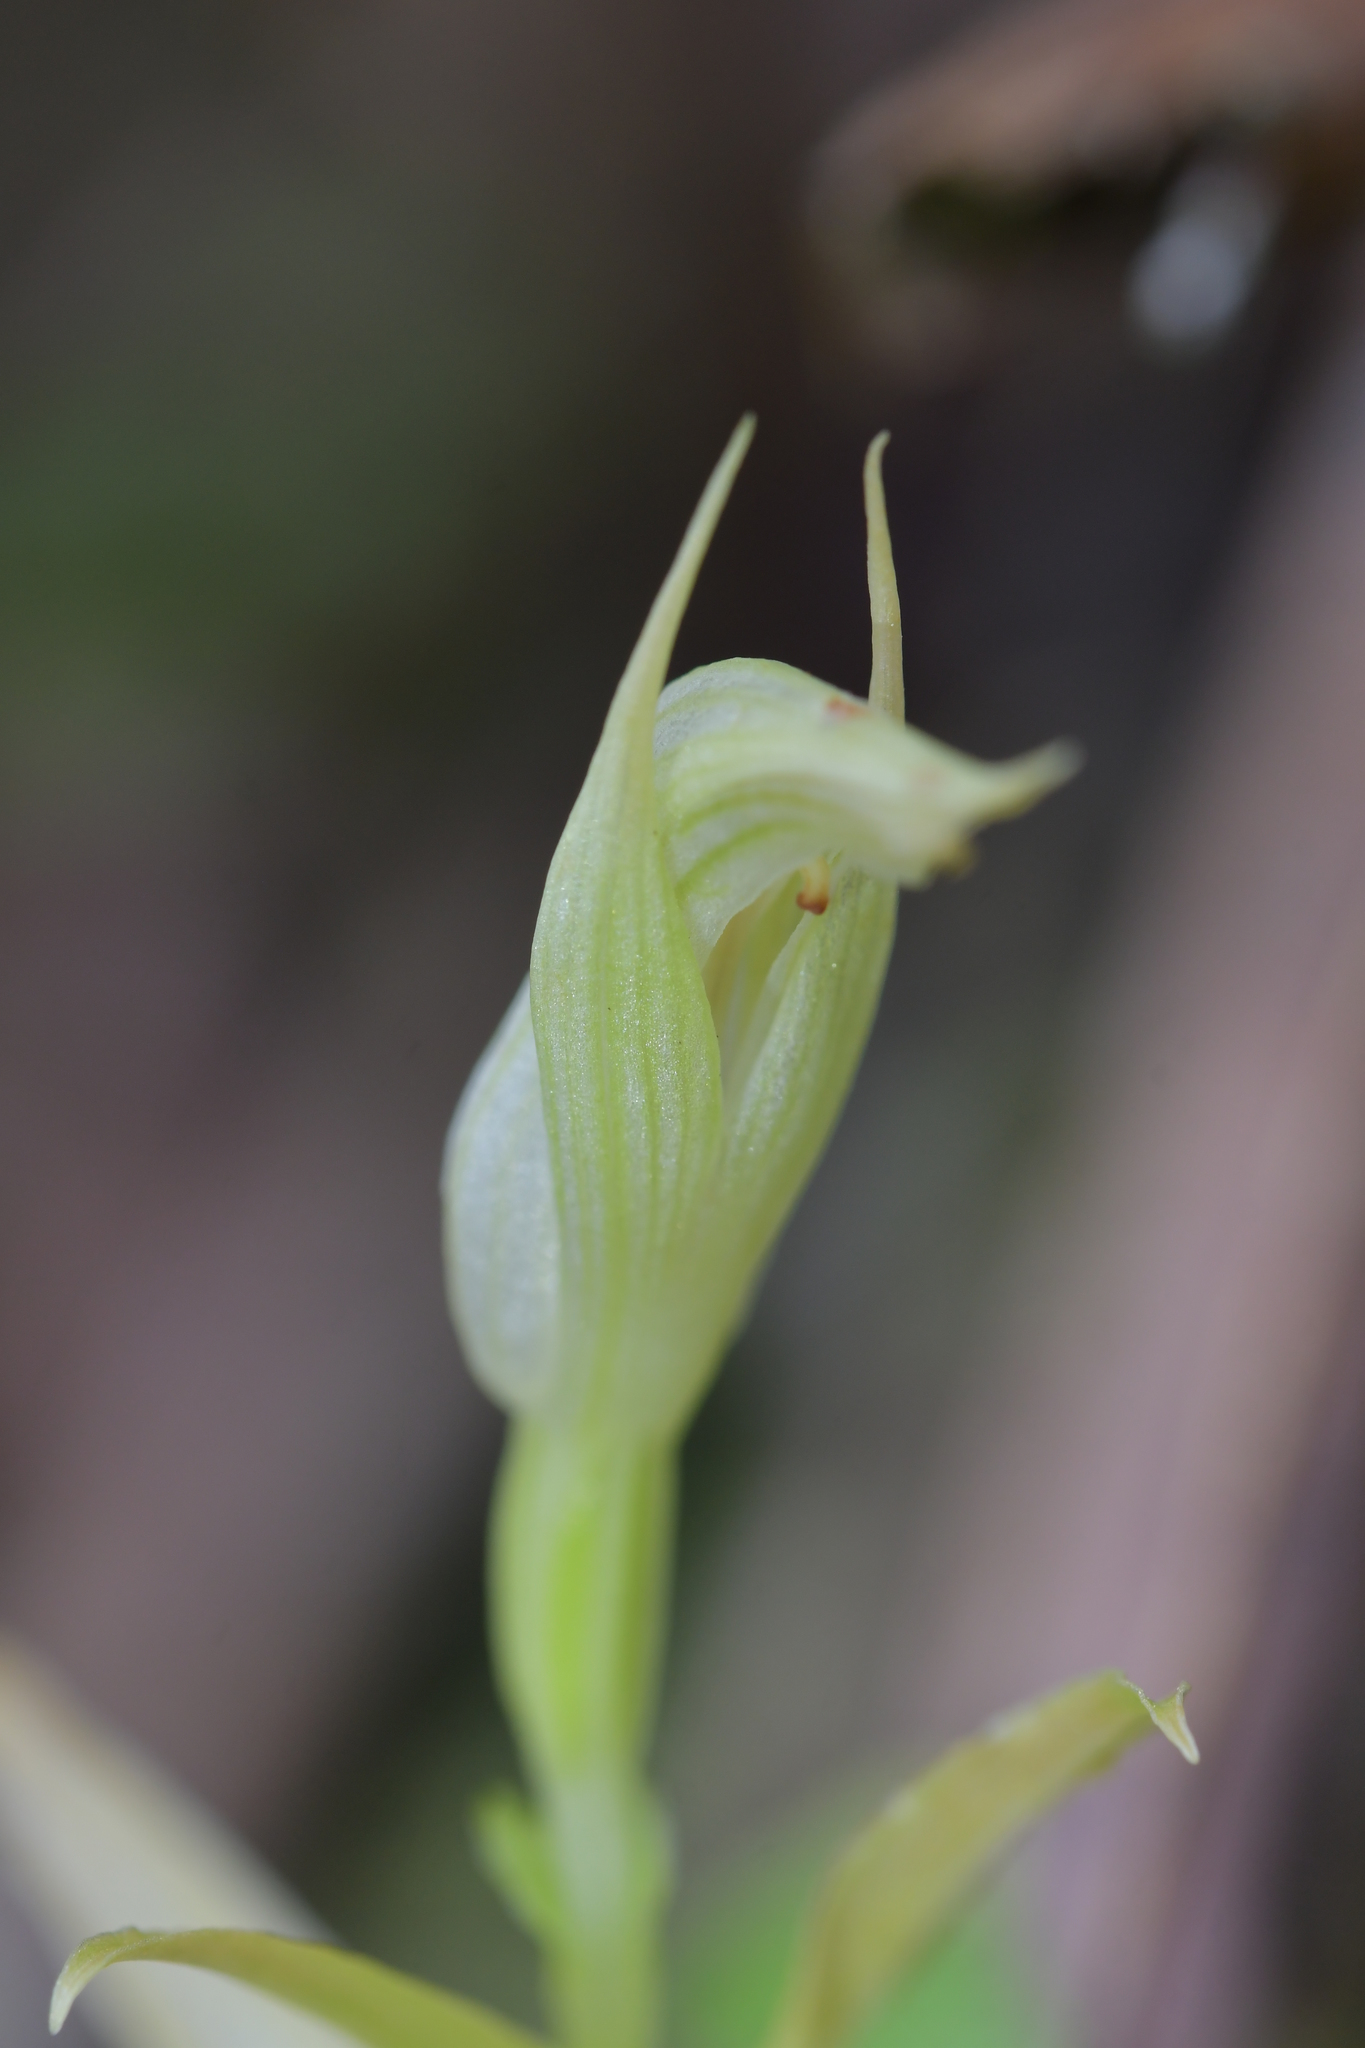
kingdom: Plantae
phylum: Tracheophyta
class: Liliopsida
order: Asparagales
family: Orchidaceae
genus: Pterostylis
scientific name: Pterostylis irsoniana
